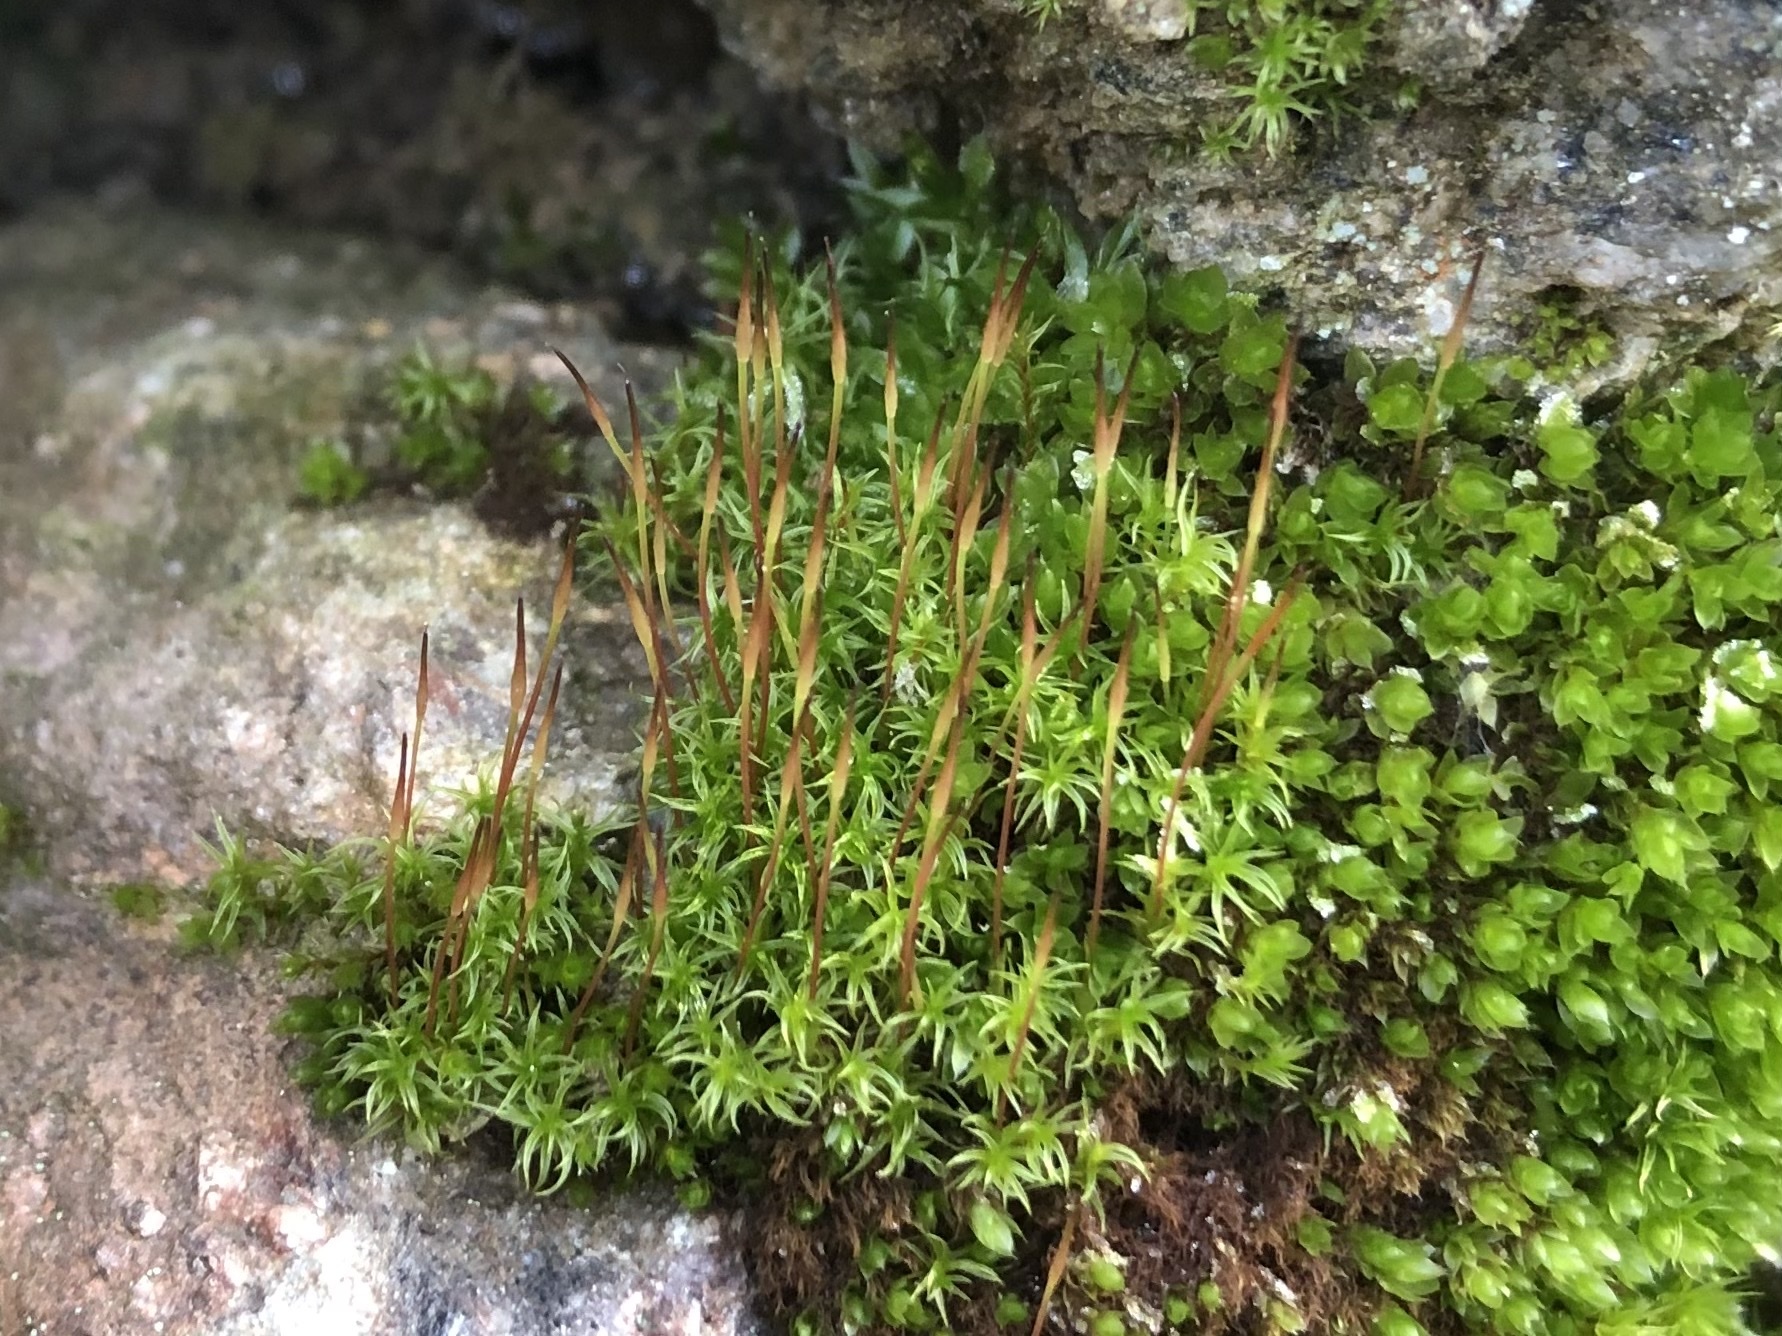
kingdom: Plantae
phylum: Bryophyta
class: Bryopsida
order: Pottiales
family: Pottiaceae
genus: Geheebia
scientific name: Geheebia fallax
